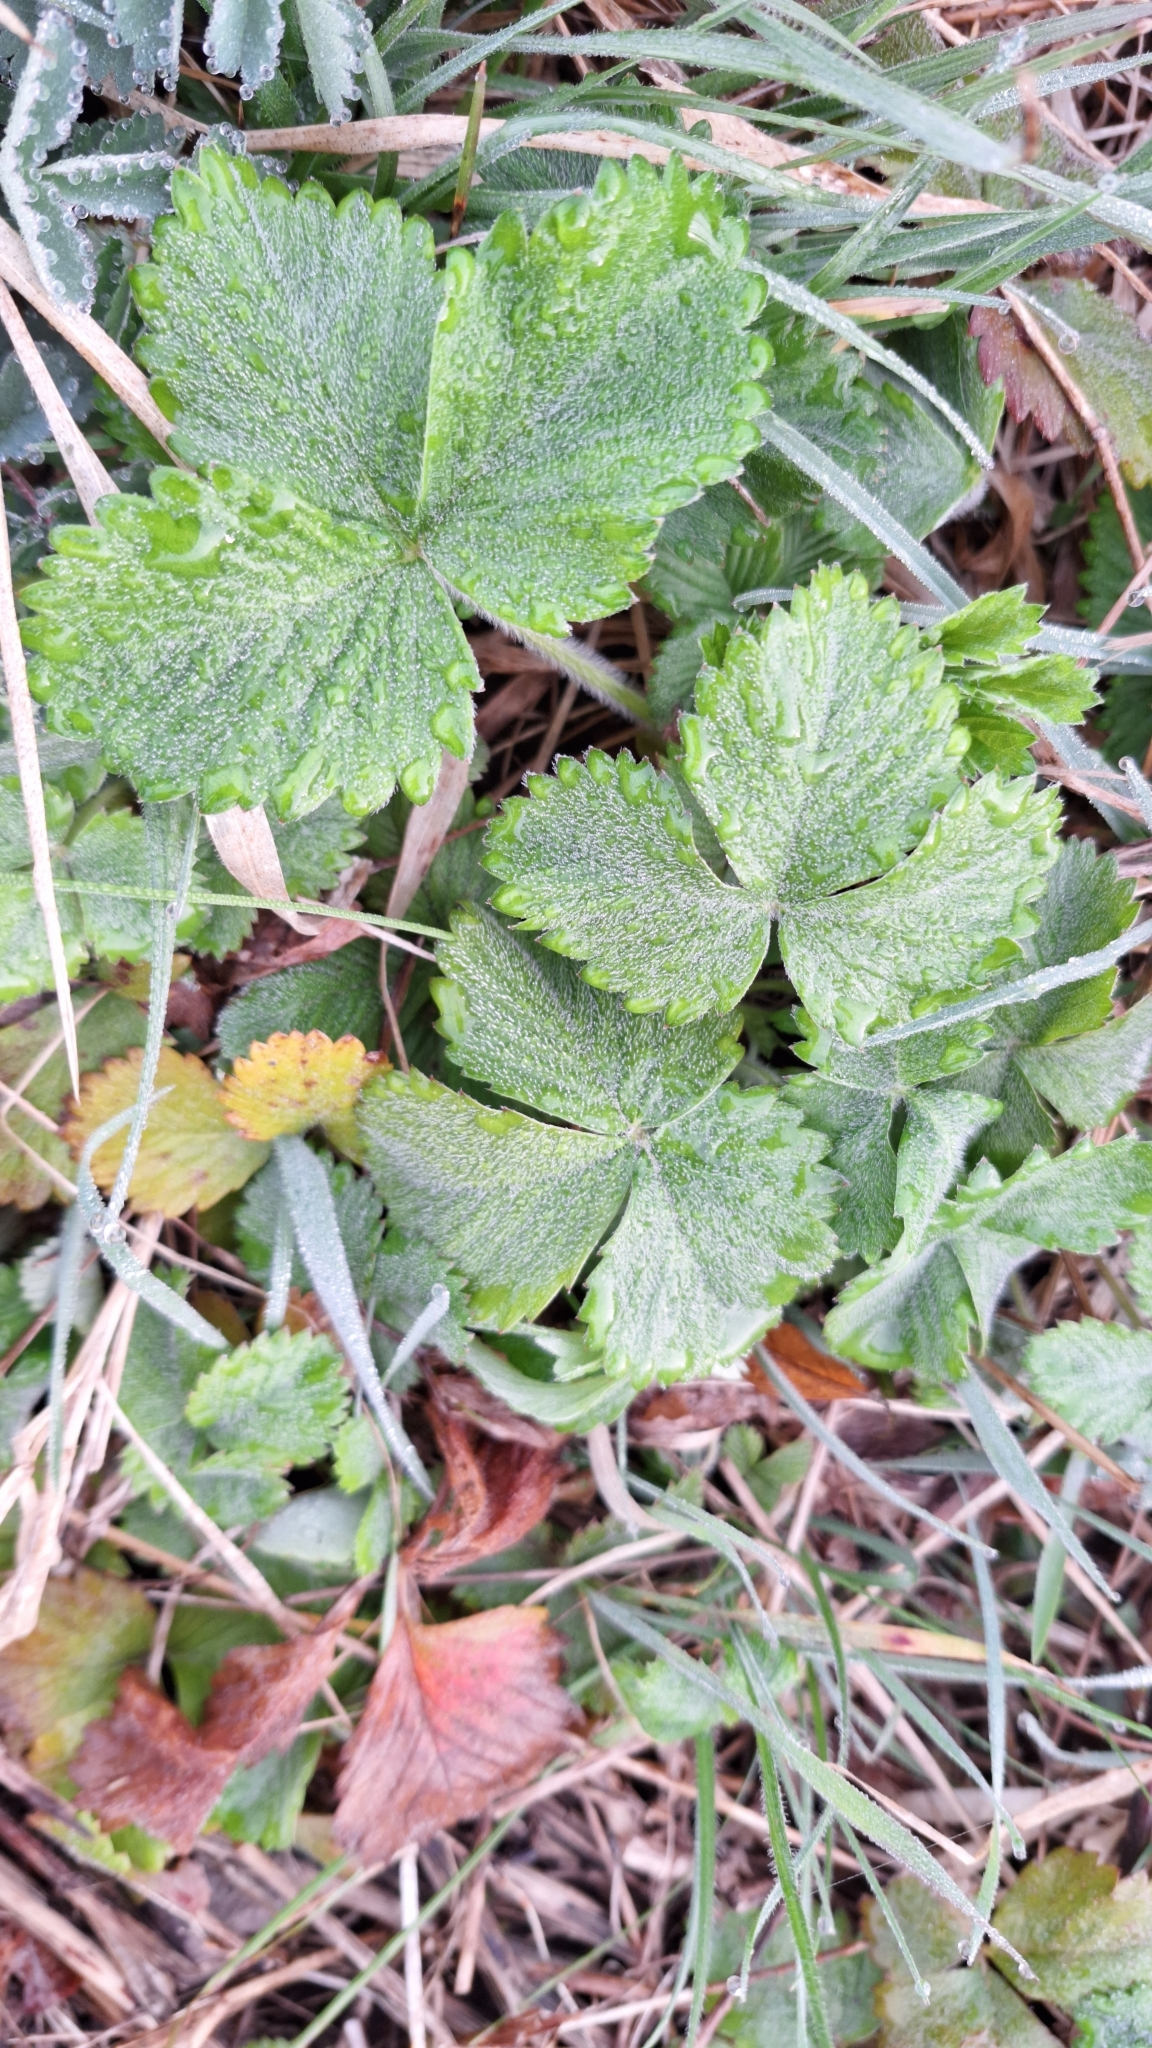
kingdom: Plantae
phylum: Tracheophyta
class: Magnoliopsida
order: Rosales
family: Rosaceae
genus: Fragaria
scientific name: Fragaria vesca
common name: Wild strawberry
